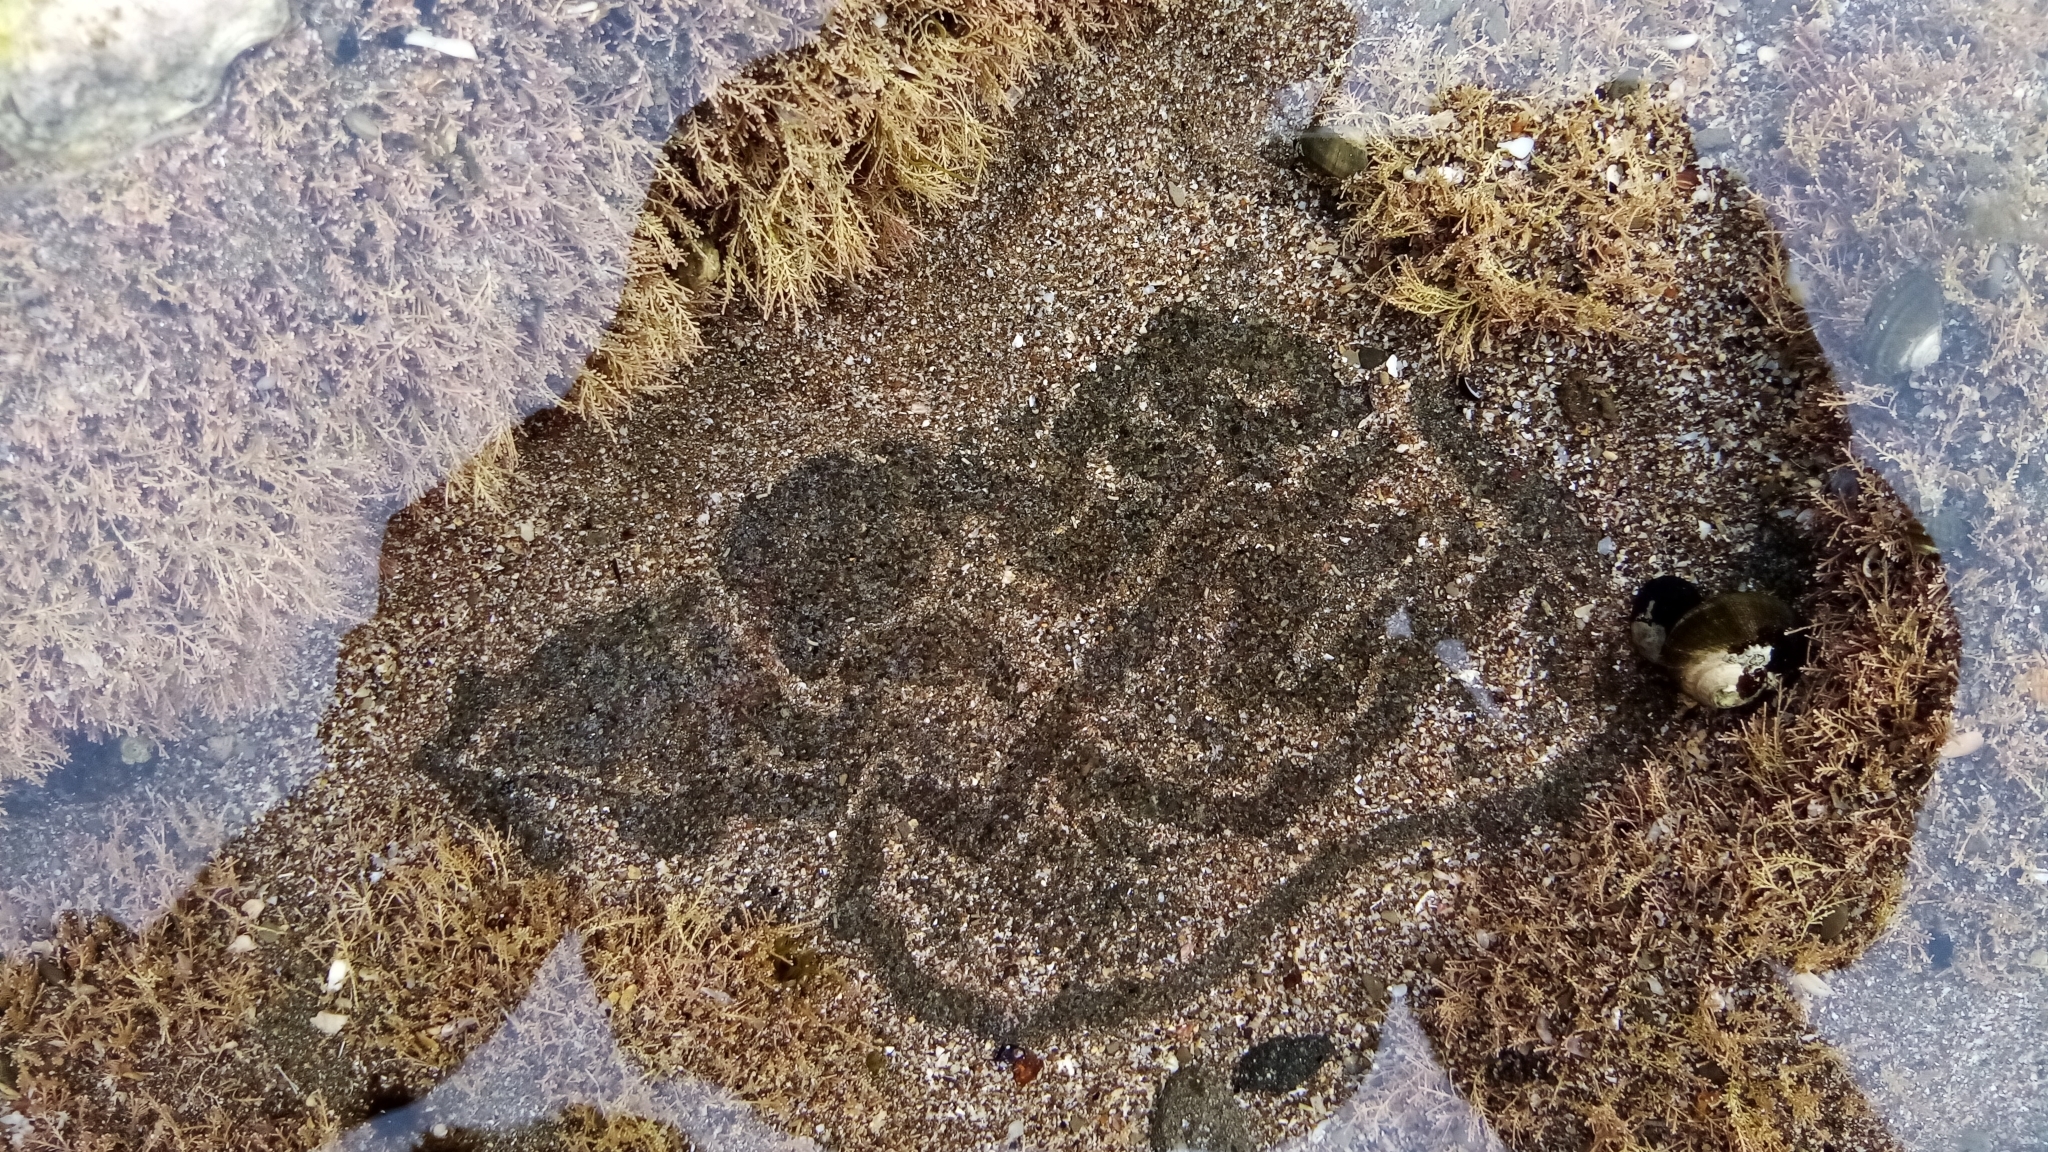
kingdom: Animalia
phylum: Mollusca
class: Gastropoda
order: Trochida
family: Turbinidae
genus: Lunella
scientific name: Lunella smaragda
